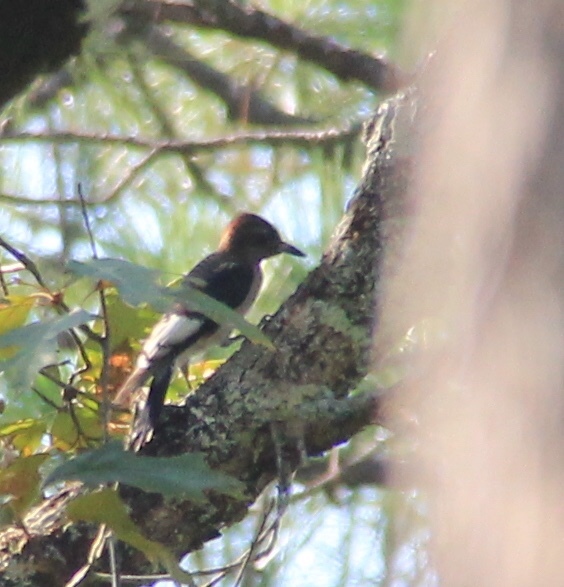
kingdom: Animalia
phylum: Chordata
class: Aves
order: Piciformes
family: Picidae
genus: Melanerpes
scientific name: Melanerpes erythrocephalus
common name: Red-headed woodpecker
